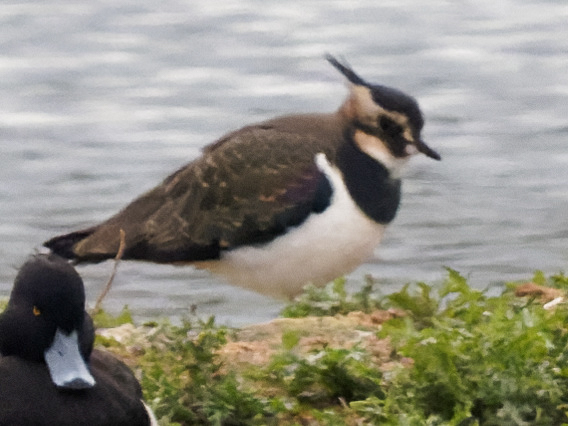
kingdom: Animalia
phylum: Chordata
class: Aves
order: Charadriiformes
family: Charadriidae
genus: Vanellus
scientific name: Vanellus vanellus
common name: Northern lapwing
